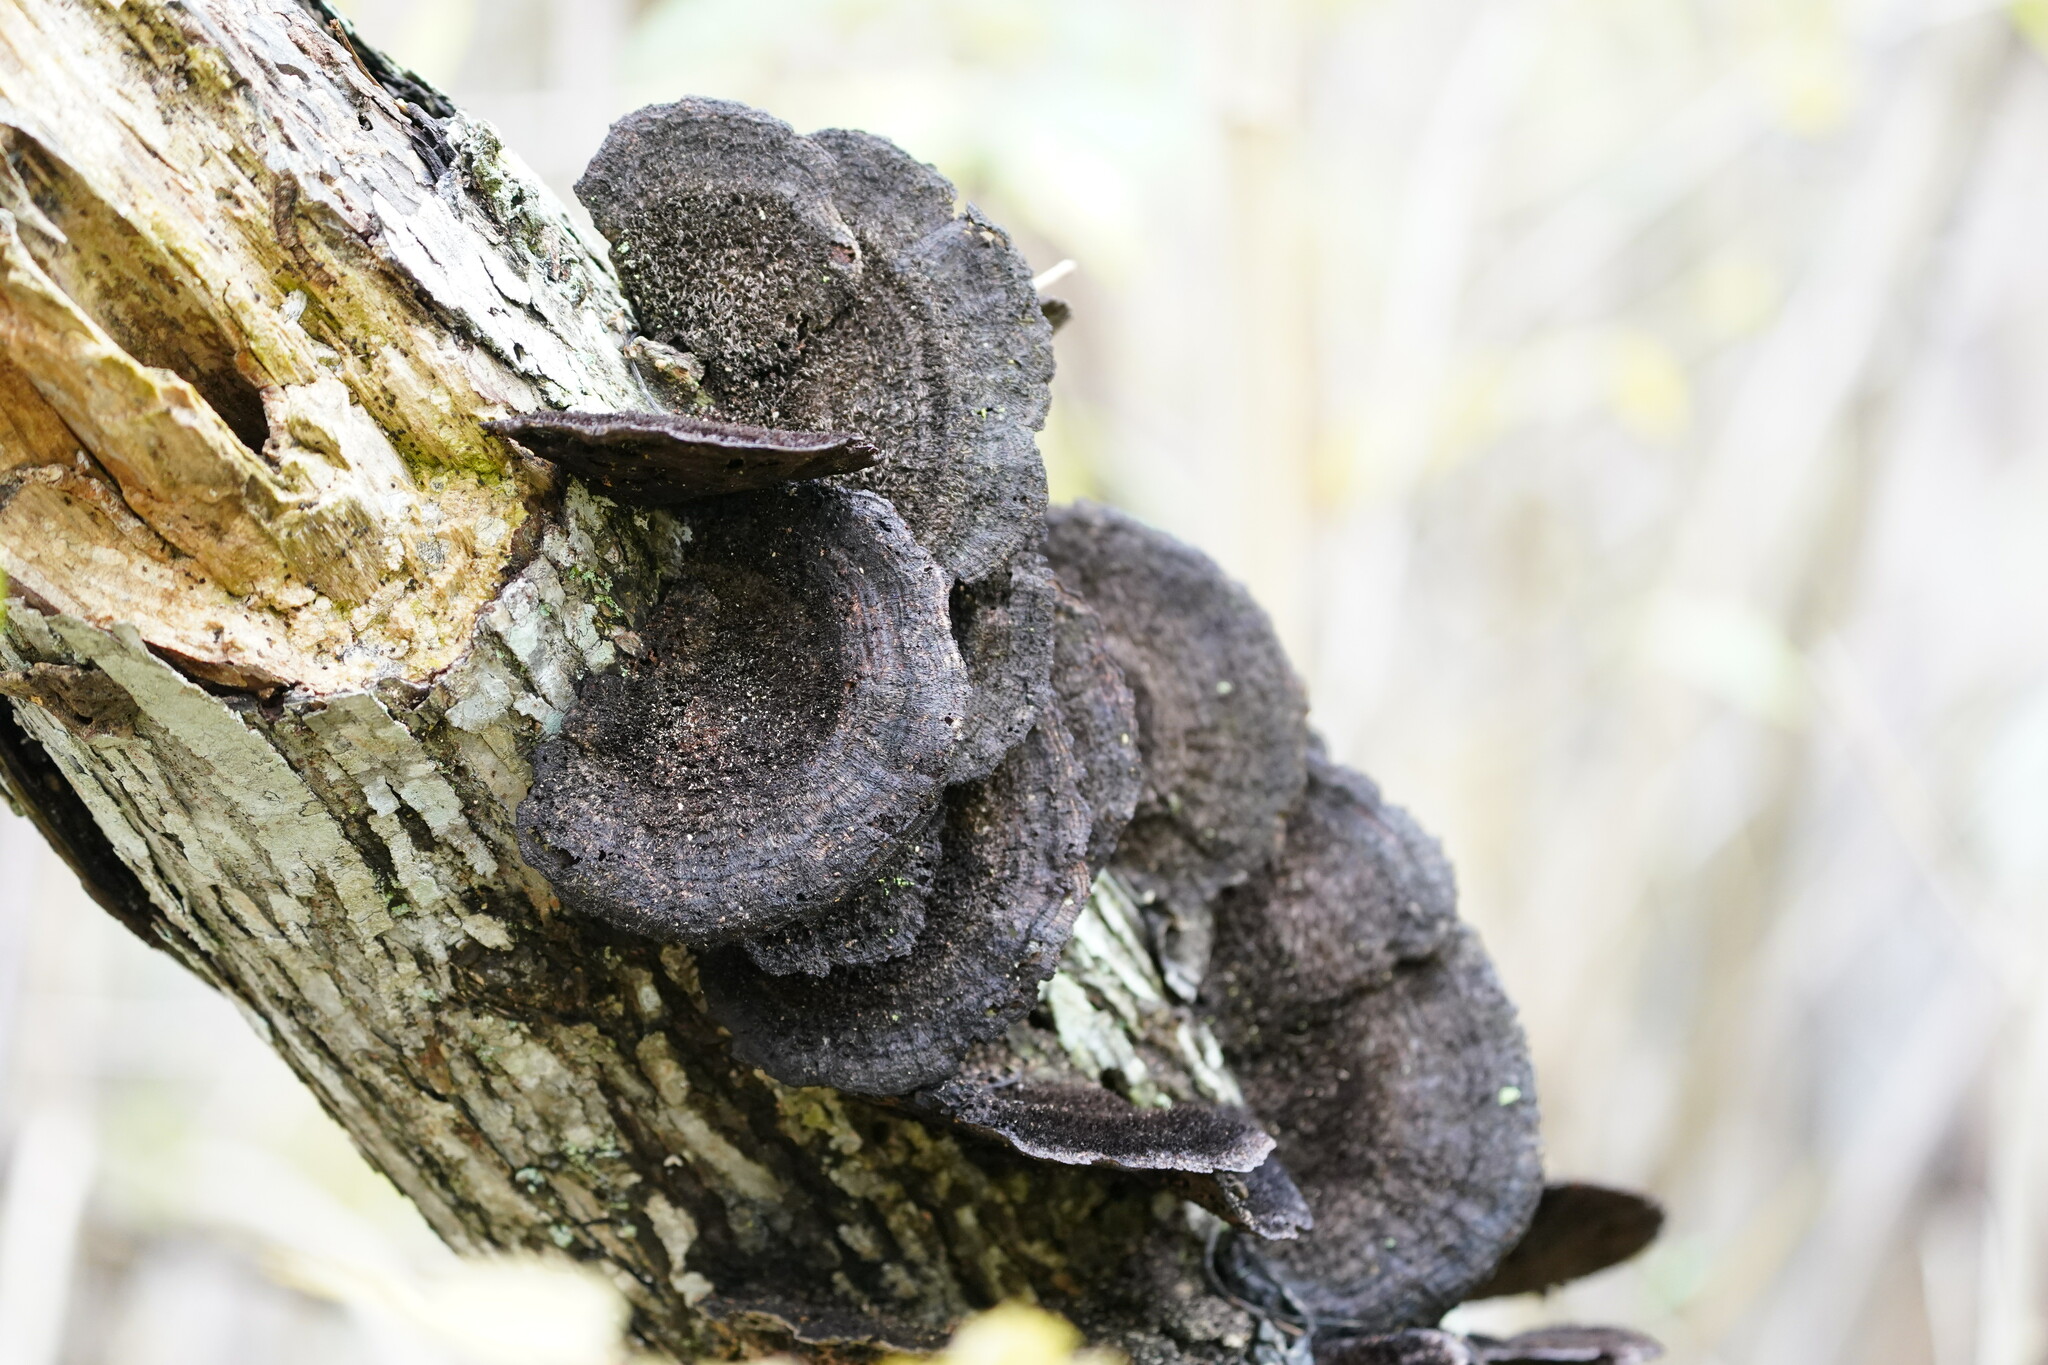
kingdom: Fungi
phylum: Basidiomycota
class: Agaricomycetes
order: Polyporales
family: Cerrenaceae
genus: Cerrena
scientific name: Cerrena hydnoides
